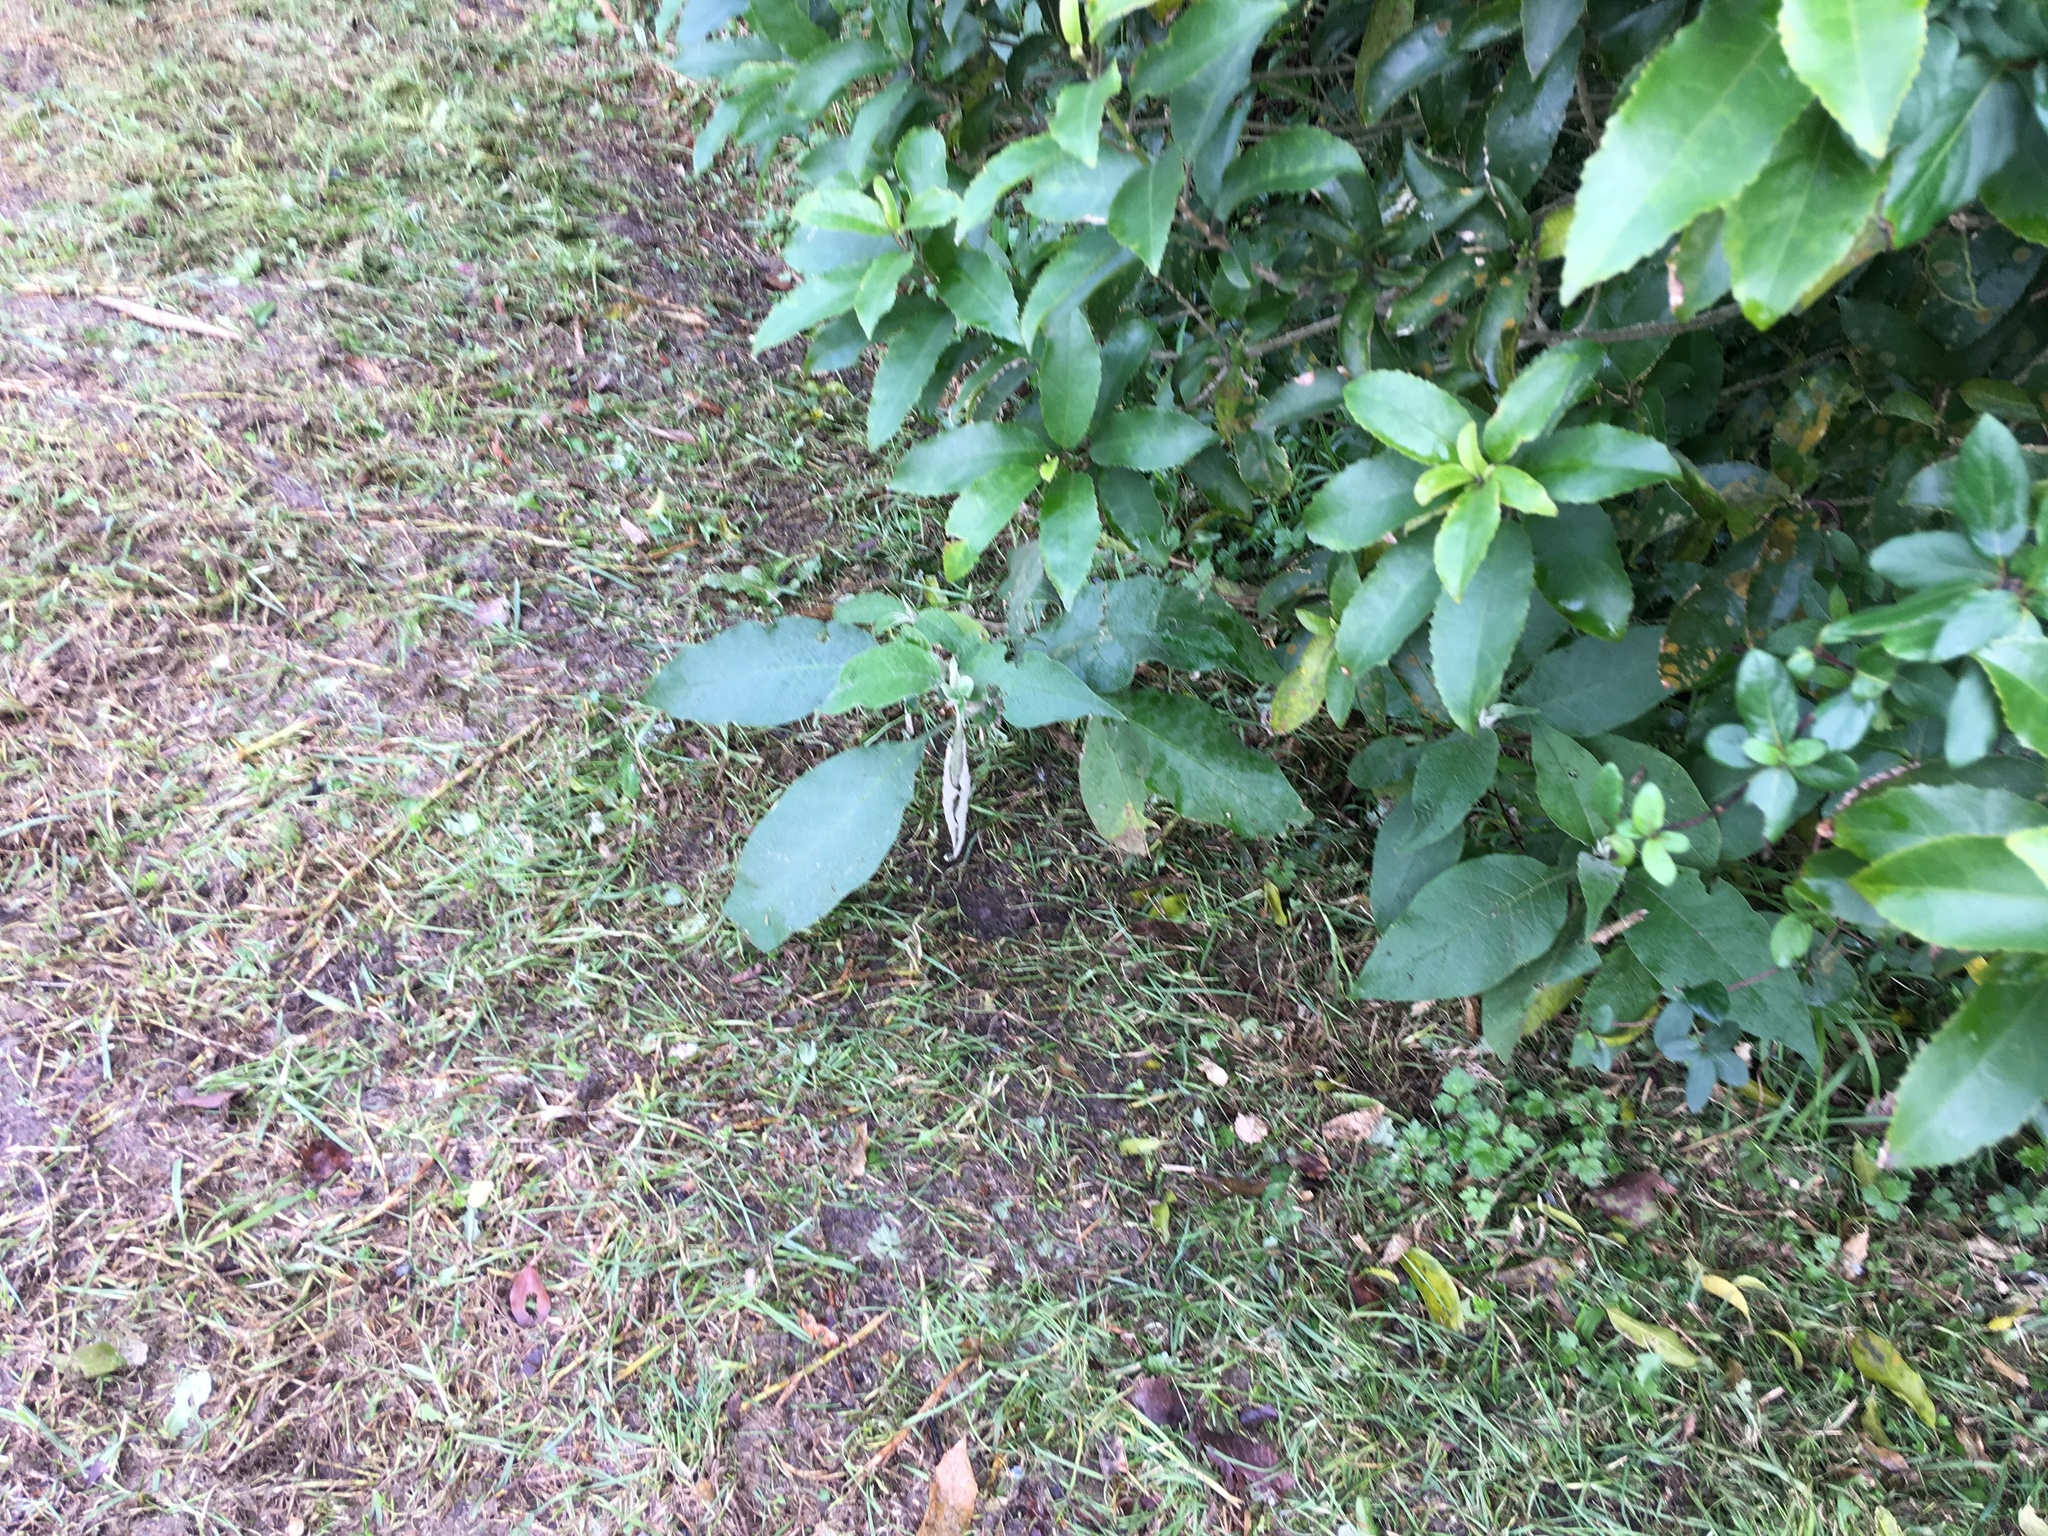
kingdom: Plantae
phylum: Tracheophyta
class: Magnoliopsida
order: Malpighiales
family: Violaceae
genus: Melicytus
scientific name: Melicytus ramiflorus
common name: Mahoe
